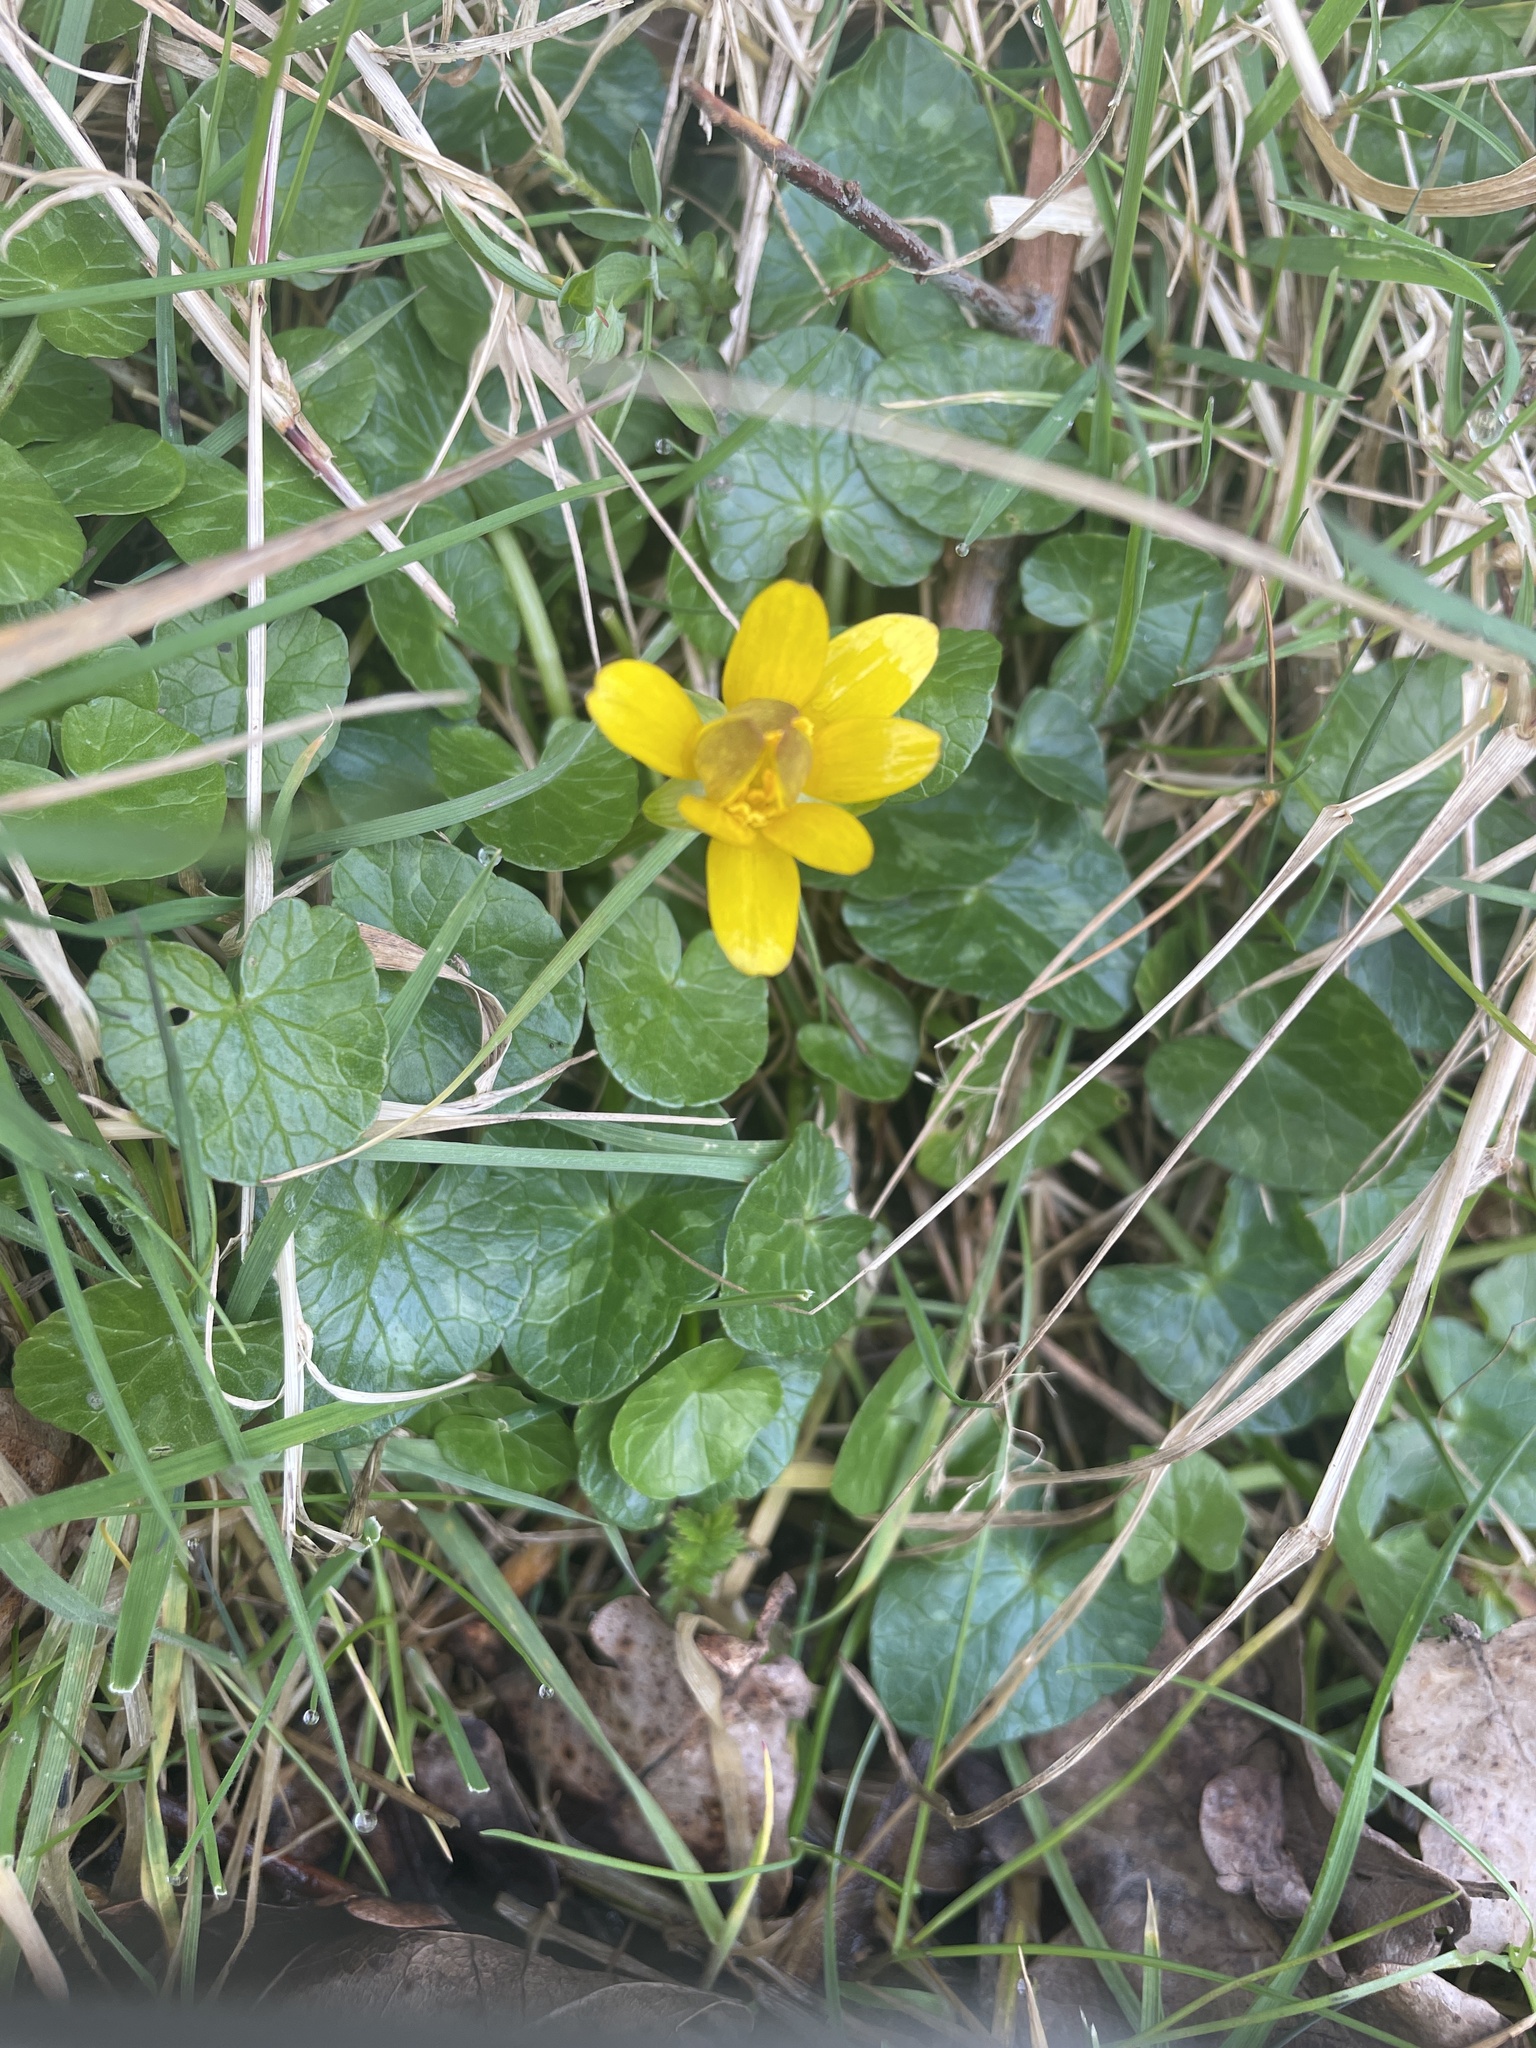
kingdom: Plantae
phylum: Tracheophyta
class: Magnoliopsida
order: Ranunculales
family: Ranunculaceae
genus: Ficaria
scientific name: Ficaria verna
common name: Lesser celandine
